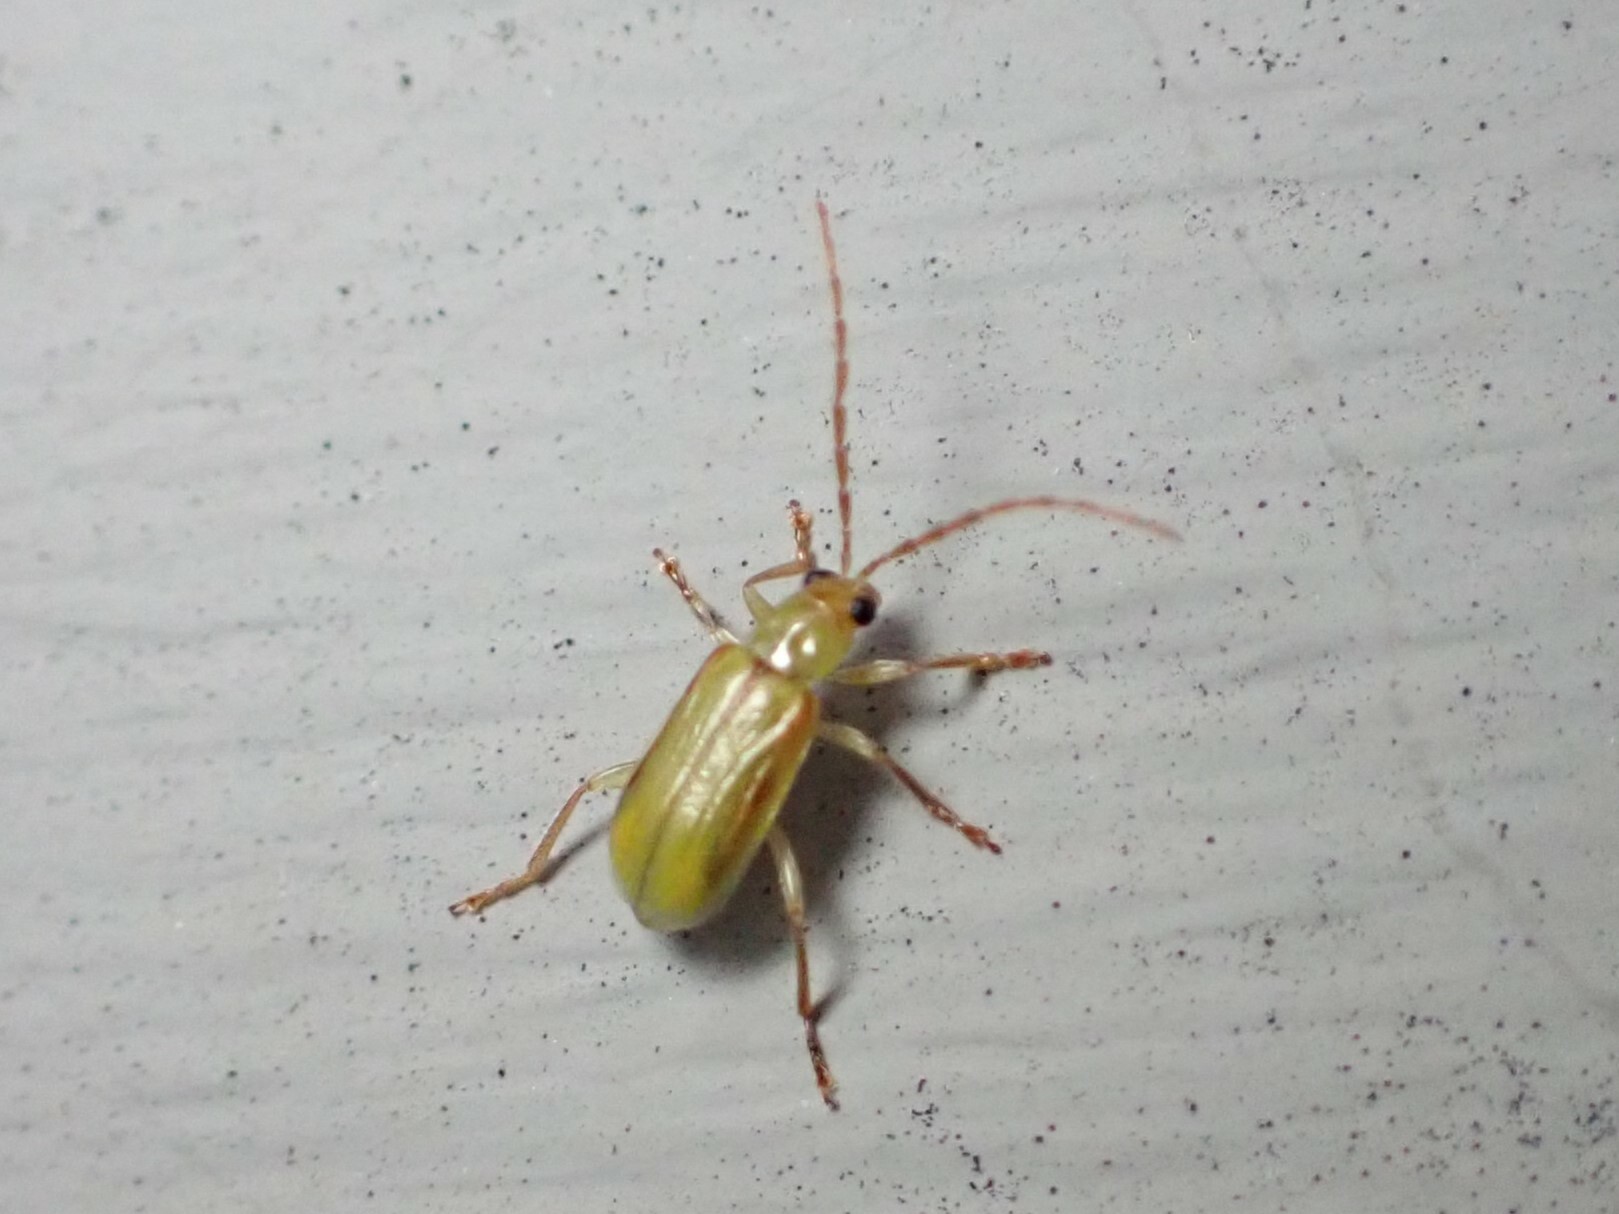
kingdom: Animalia
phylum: Arthropoda
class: Insecta
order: Coleoptera
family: Chrysomelidae
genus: Diabrotica
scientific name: Diabrotica barberi
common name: Northern corn rootworm
